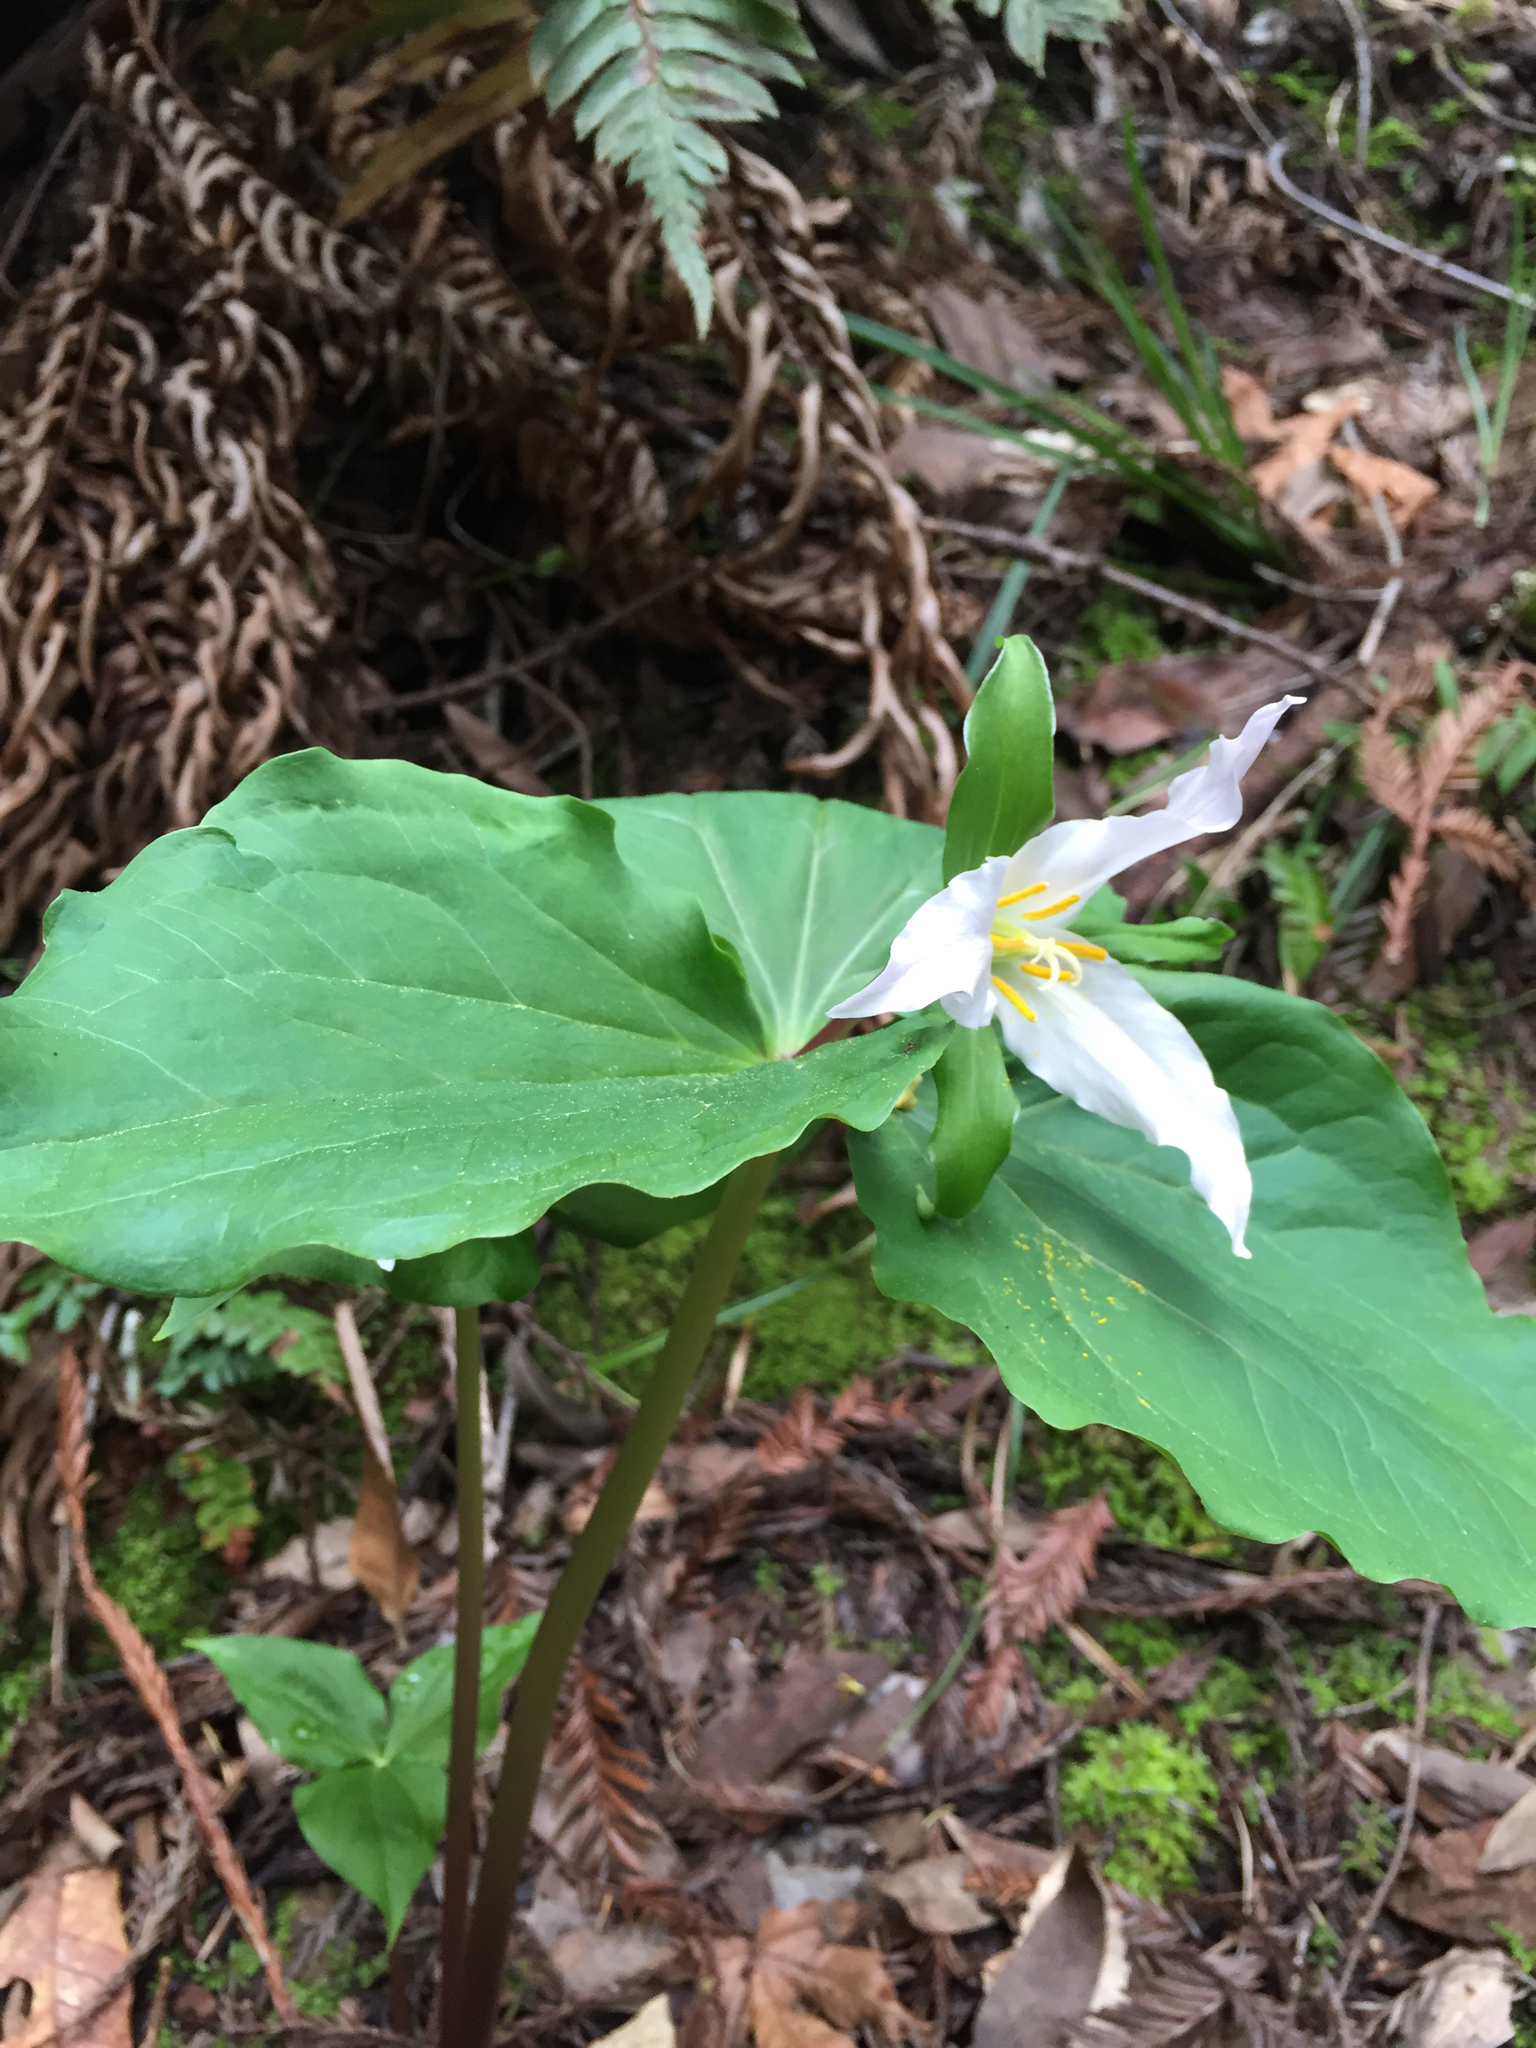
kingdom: Plantae
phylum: Tracheophyta
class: Liliopsida
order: Liliales
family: Melanthiaceae
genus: Trillium
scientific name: Trillium ovatum
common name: Pacific trillium
